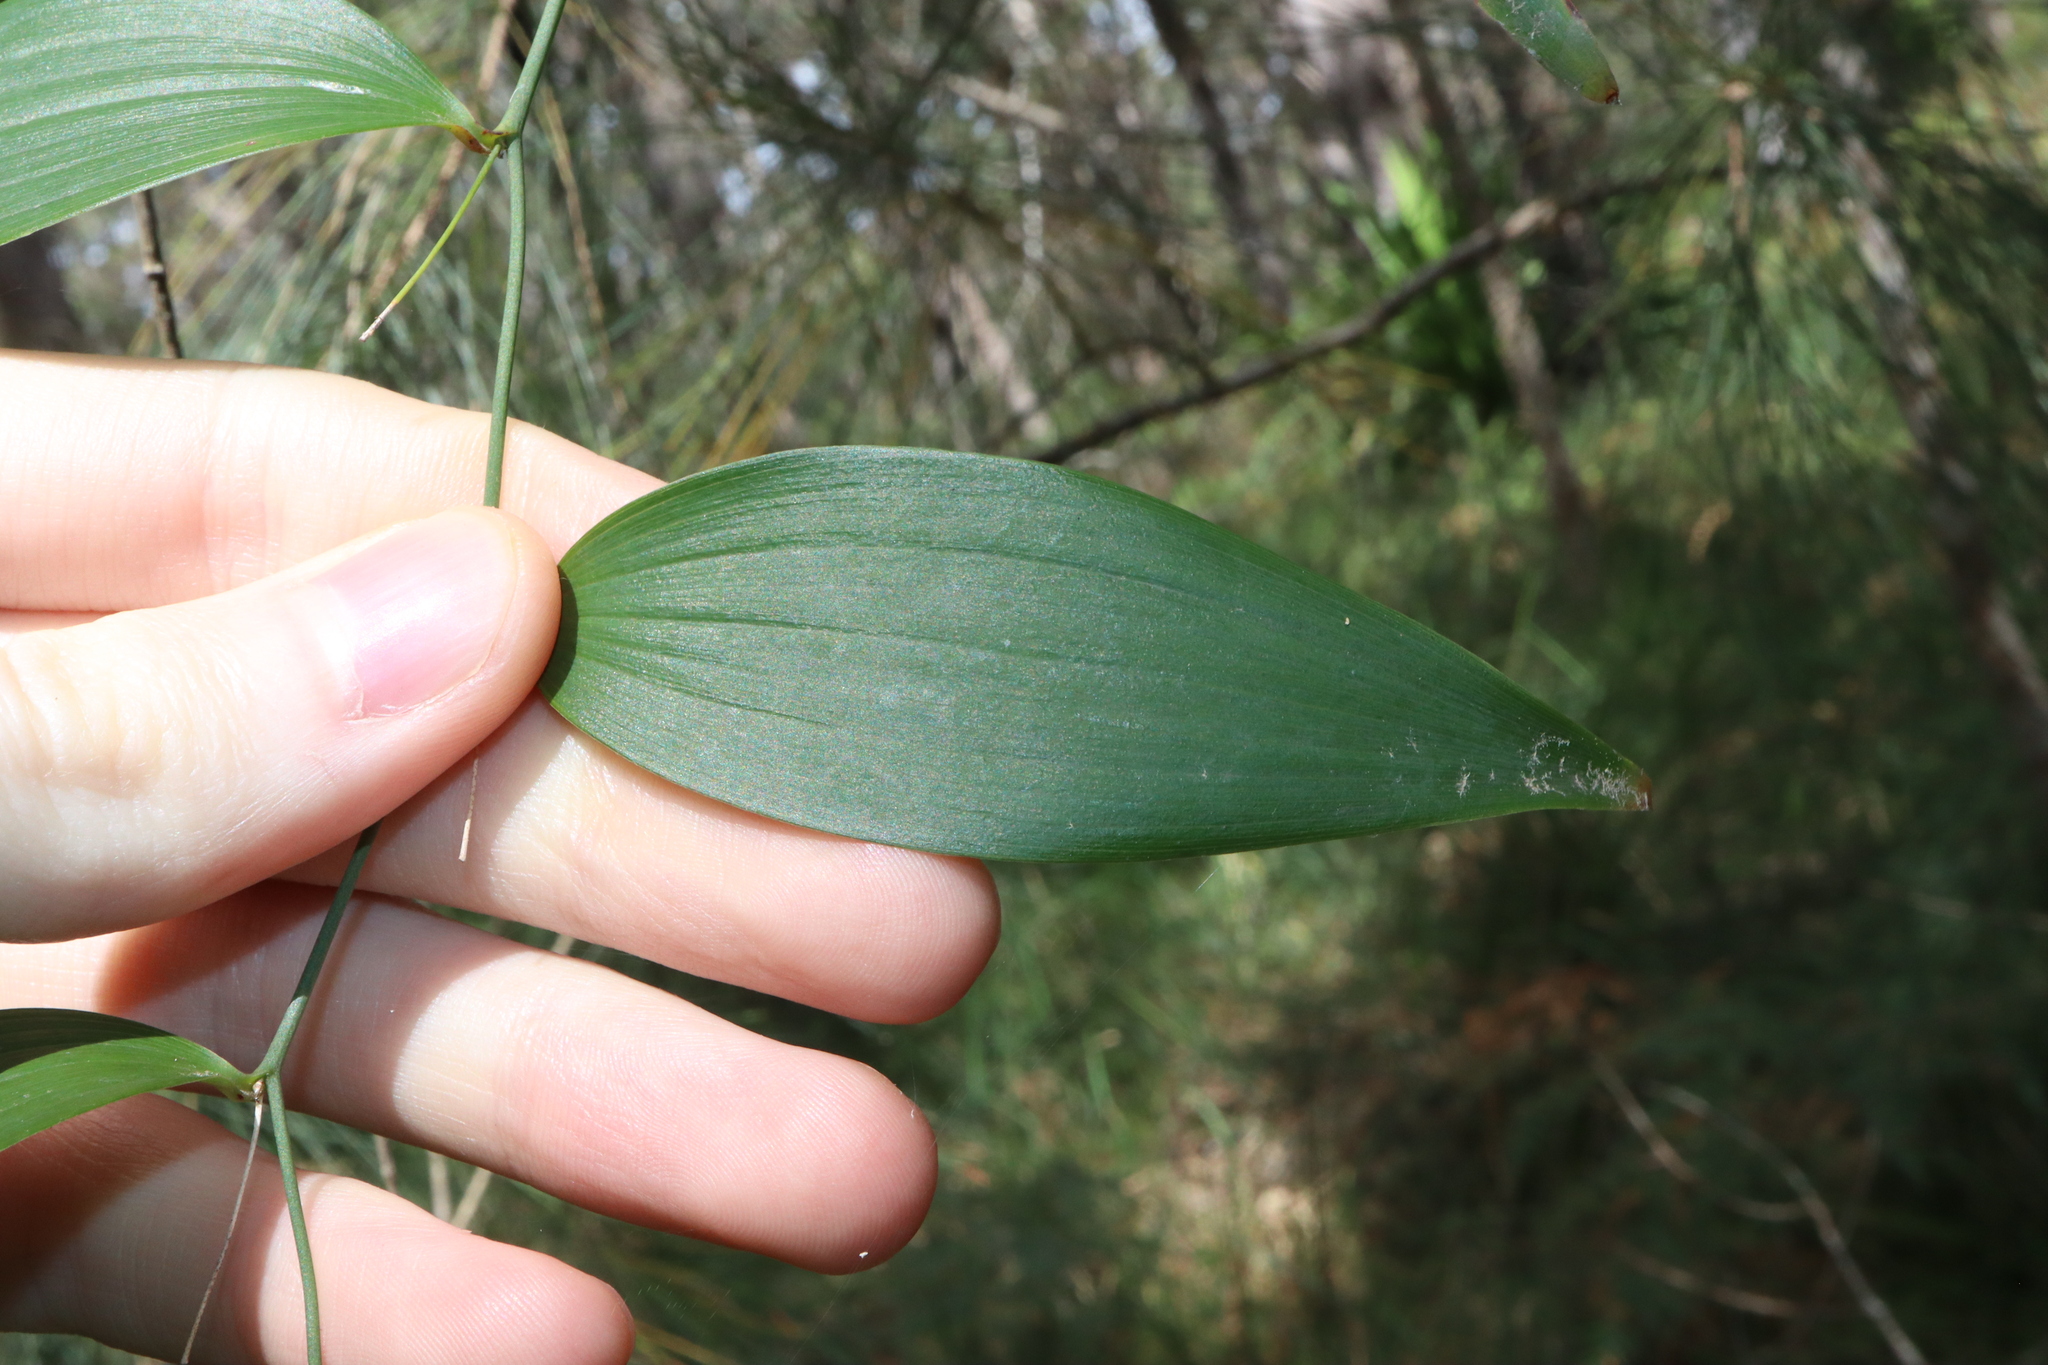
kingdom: Plantae
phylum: Tracheophyta
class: Liliopsida
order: Asparagales
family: Asparagaceae
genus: Eustrephus
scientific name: Eustrephus latifolius
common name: Orangevine
